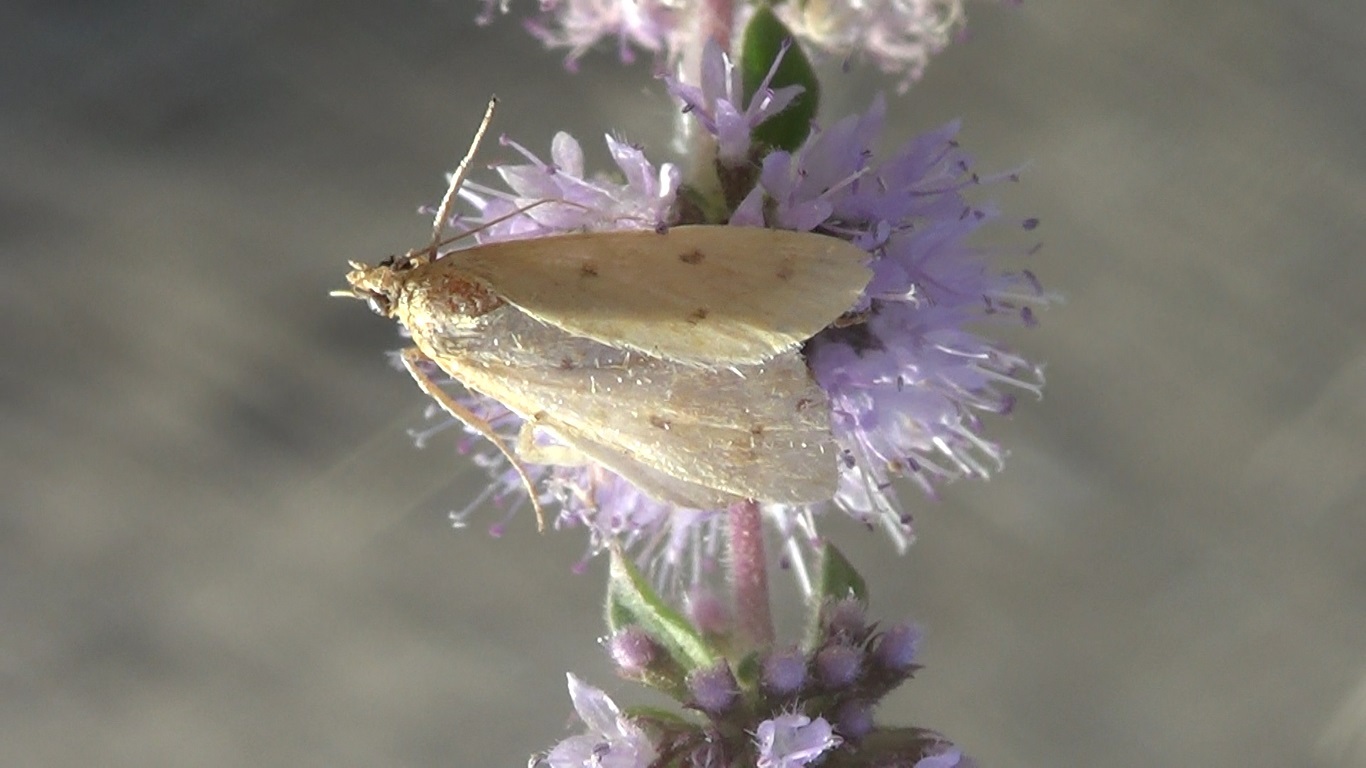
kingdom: Animalia
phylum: Arthropoda
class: Insecta
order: Lepidoptera
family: Crambidae
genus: Achyra
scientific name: Achyra nudalis
